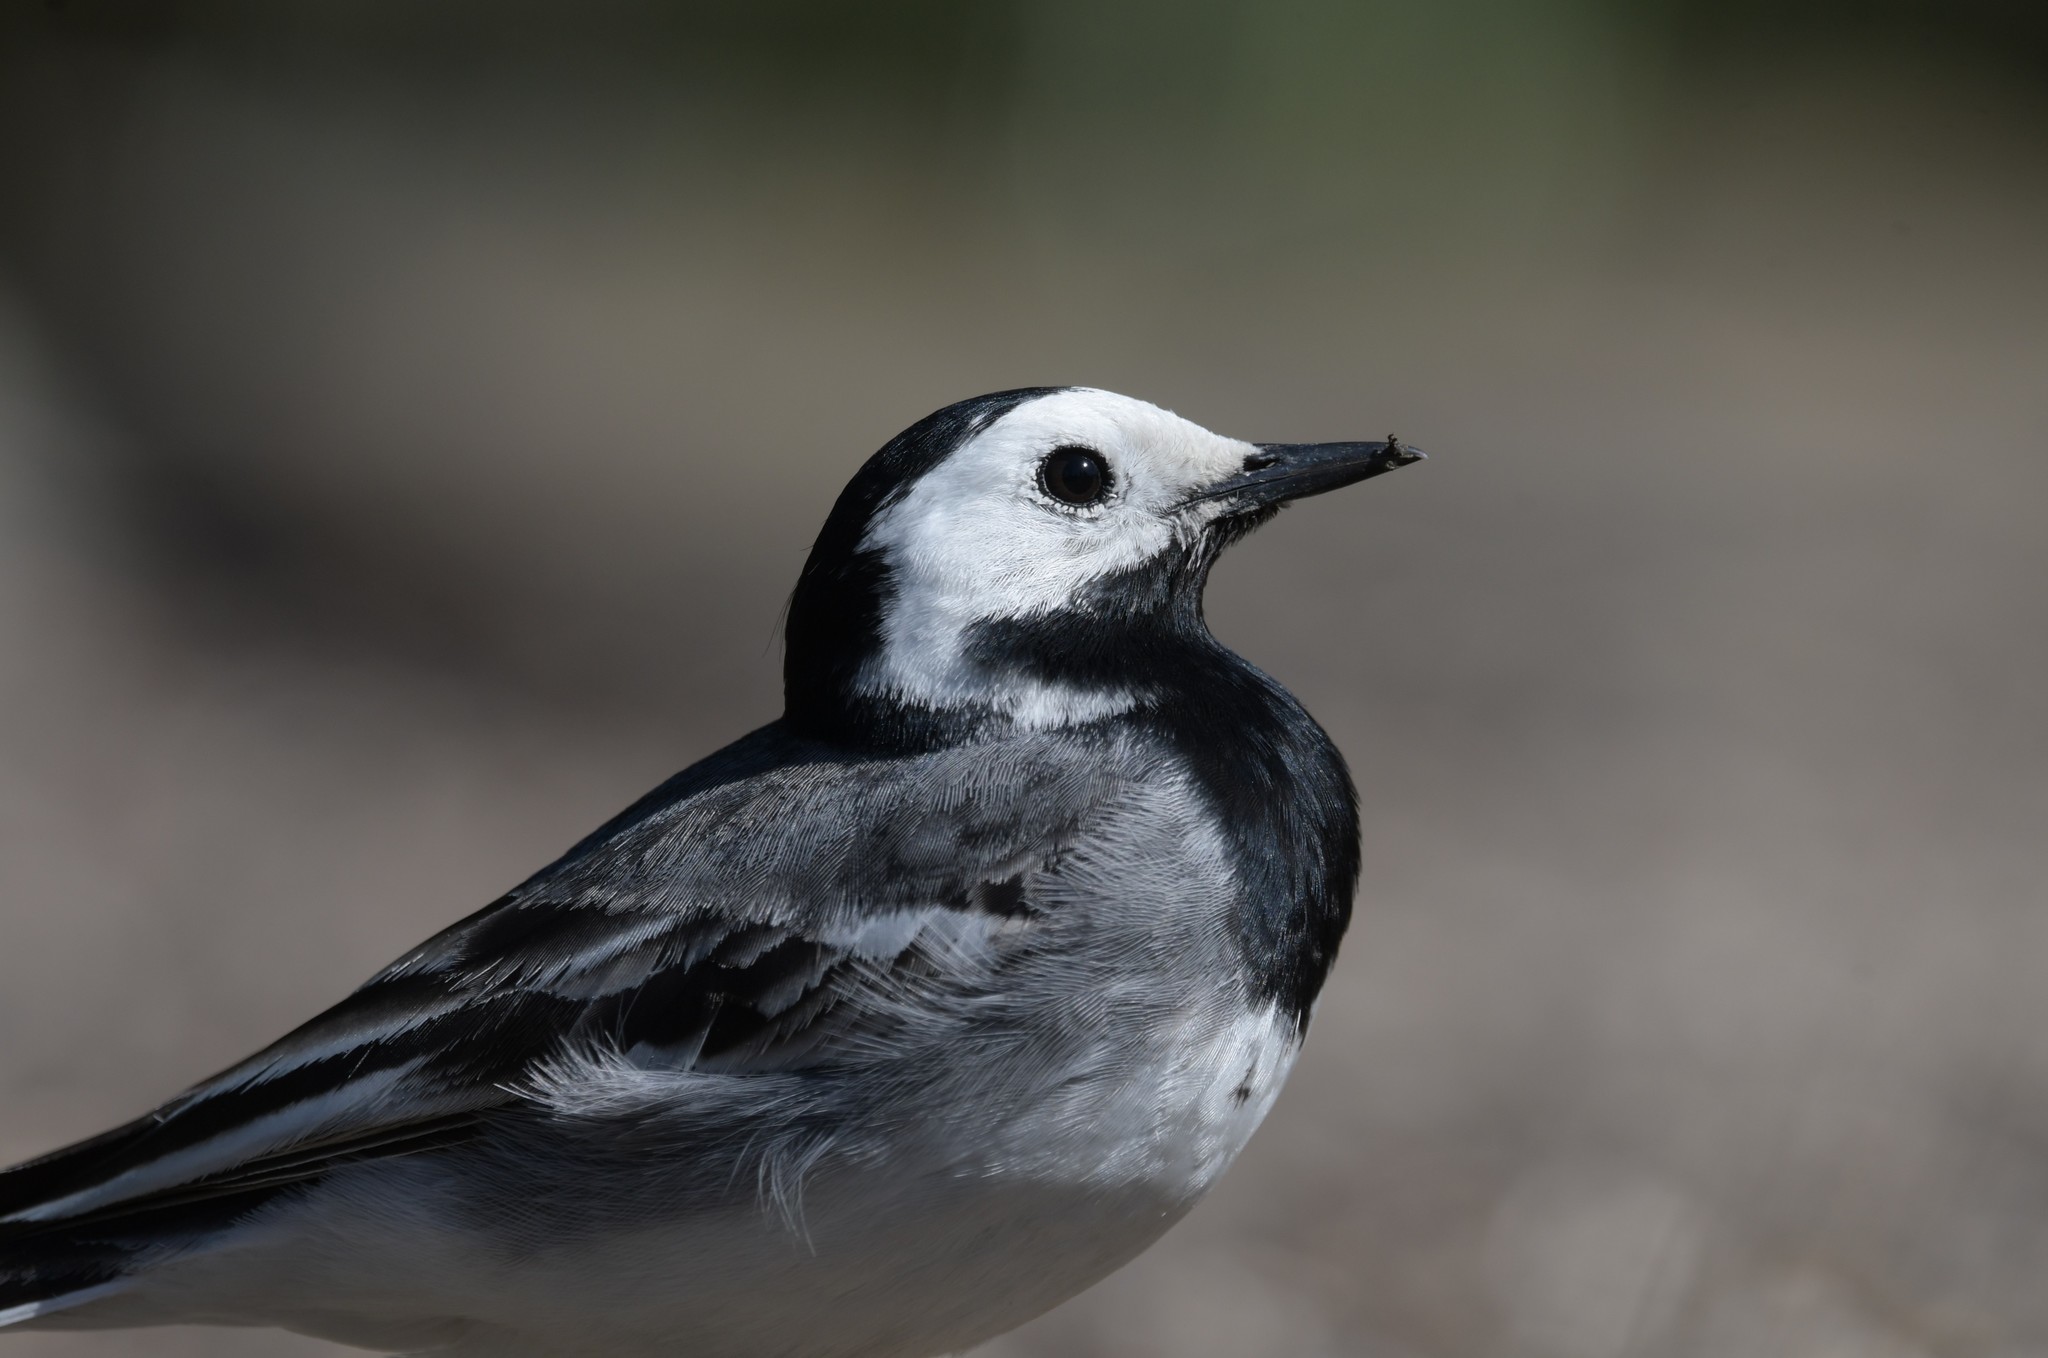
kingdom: Animalia
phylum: Chordata
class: Aves
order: Passeriformes
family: Motacillidae
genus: Motacilla
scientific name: Motacilla alba
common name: White wagtail
